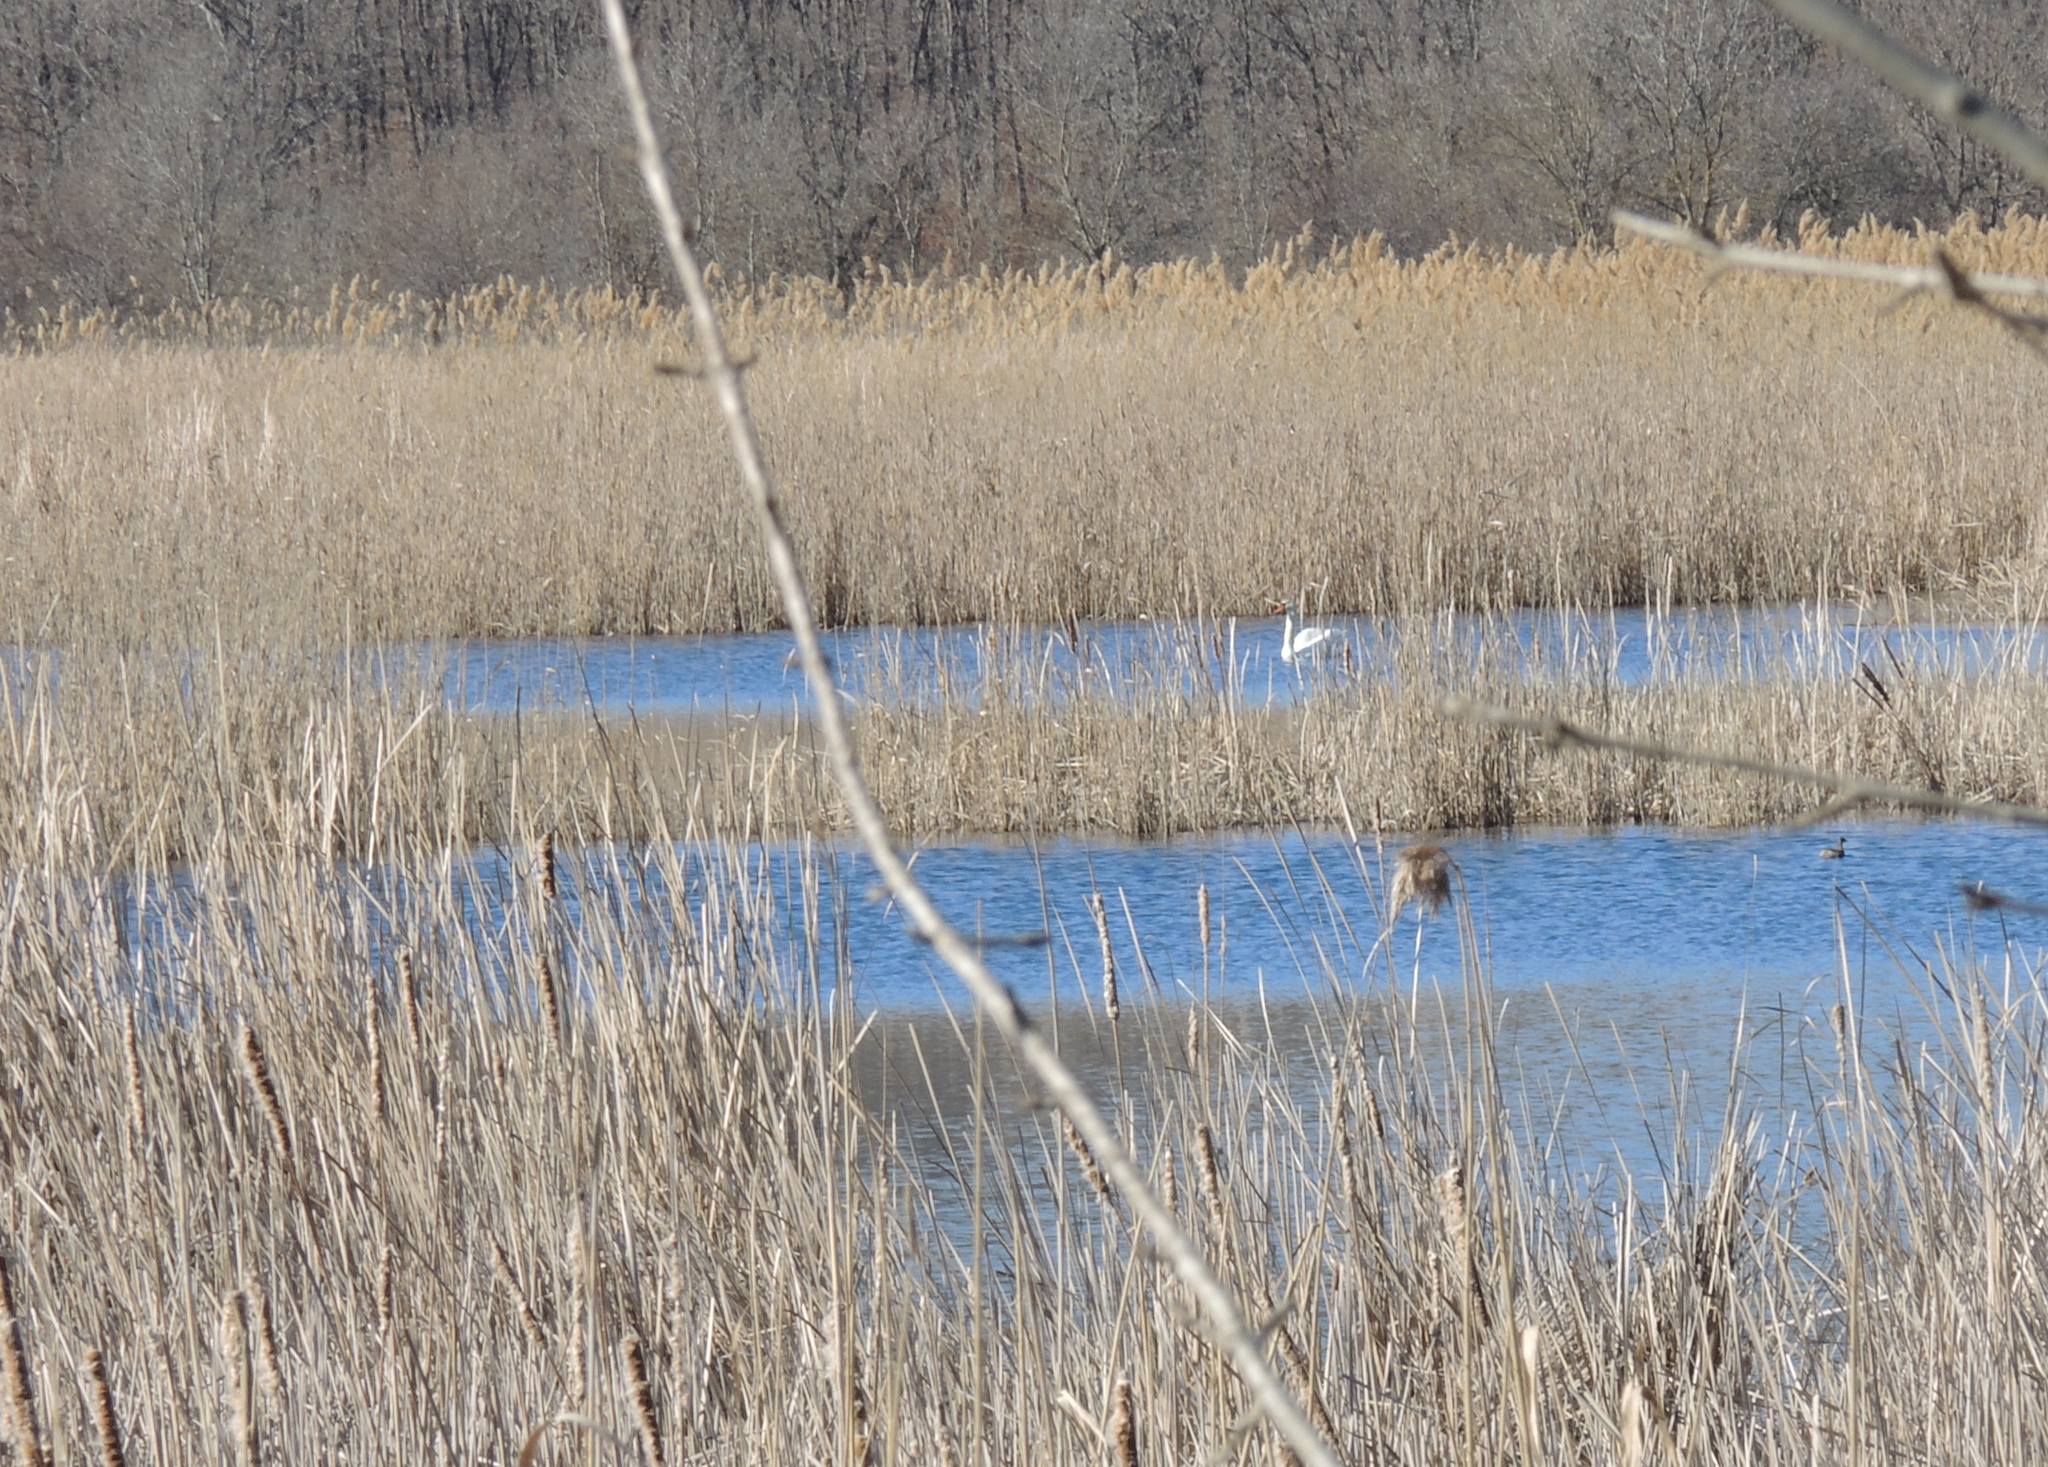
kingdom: Animalia
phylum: Chordata
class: Aves
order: Anseriformes
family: Anatidae
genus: Cygnus
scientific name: Cygnus olor
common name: Mute swan
